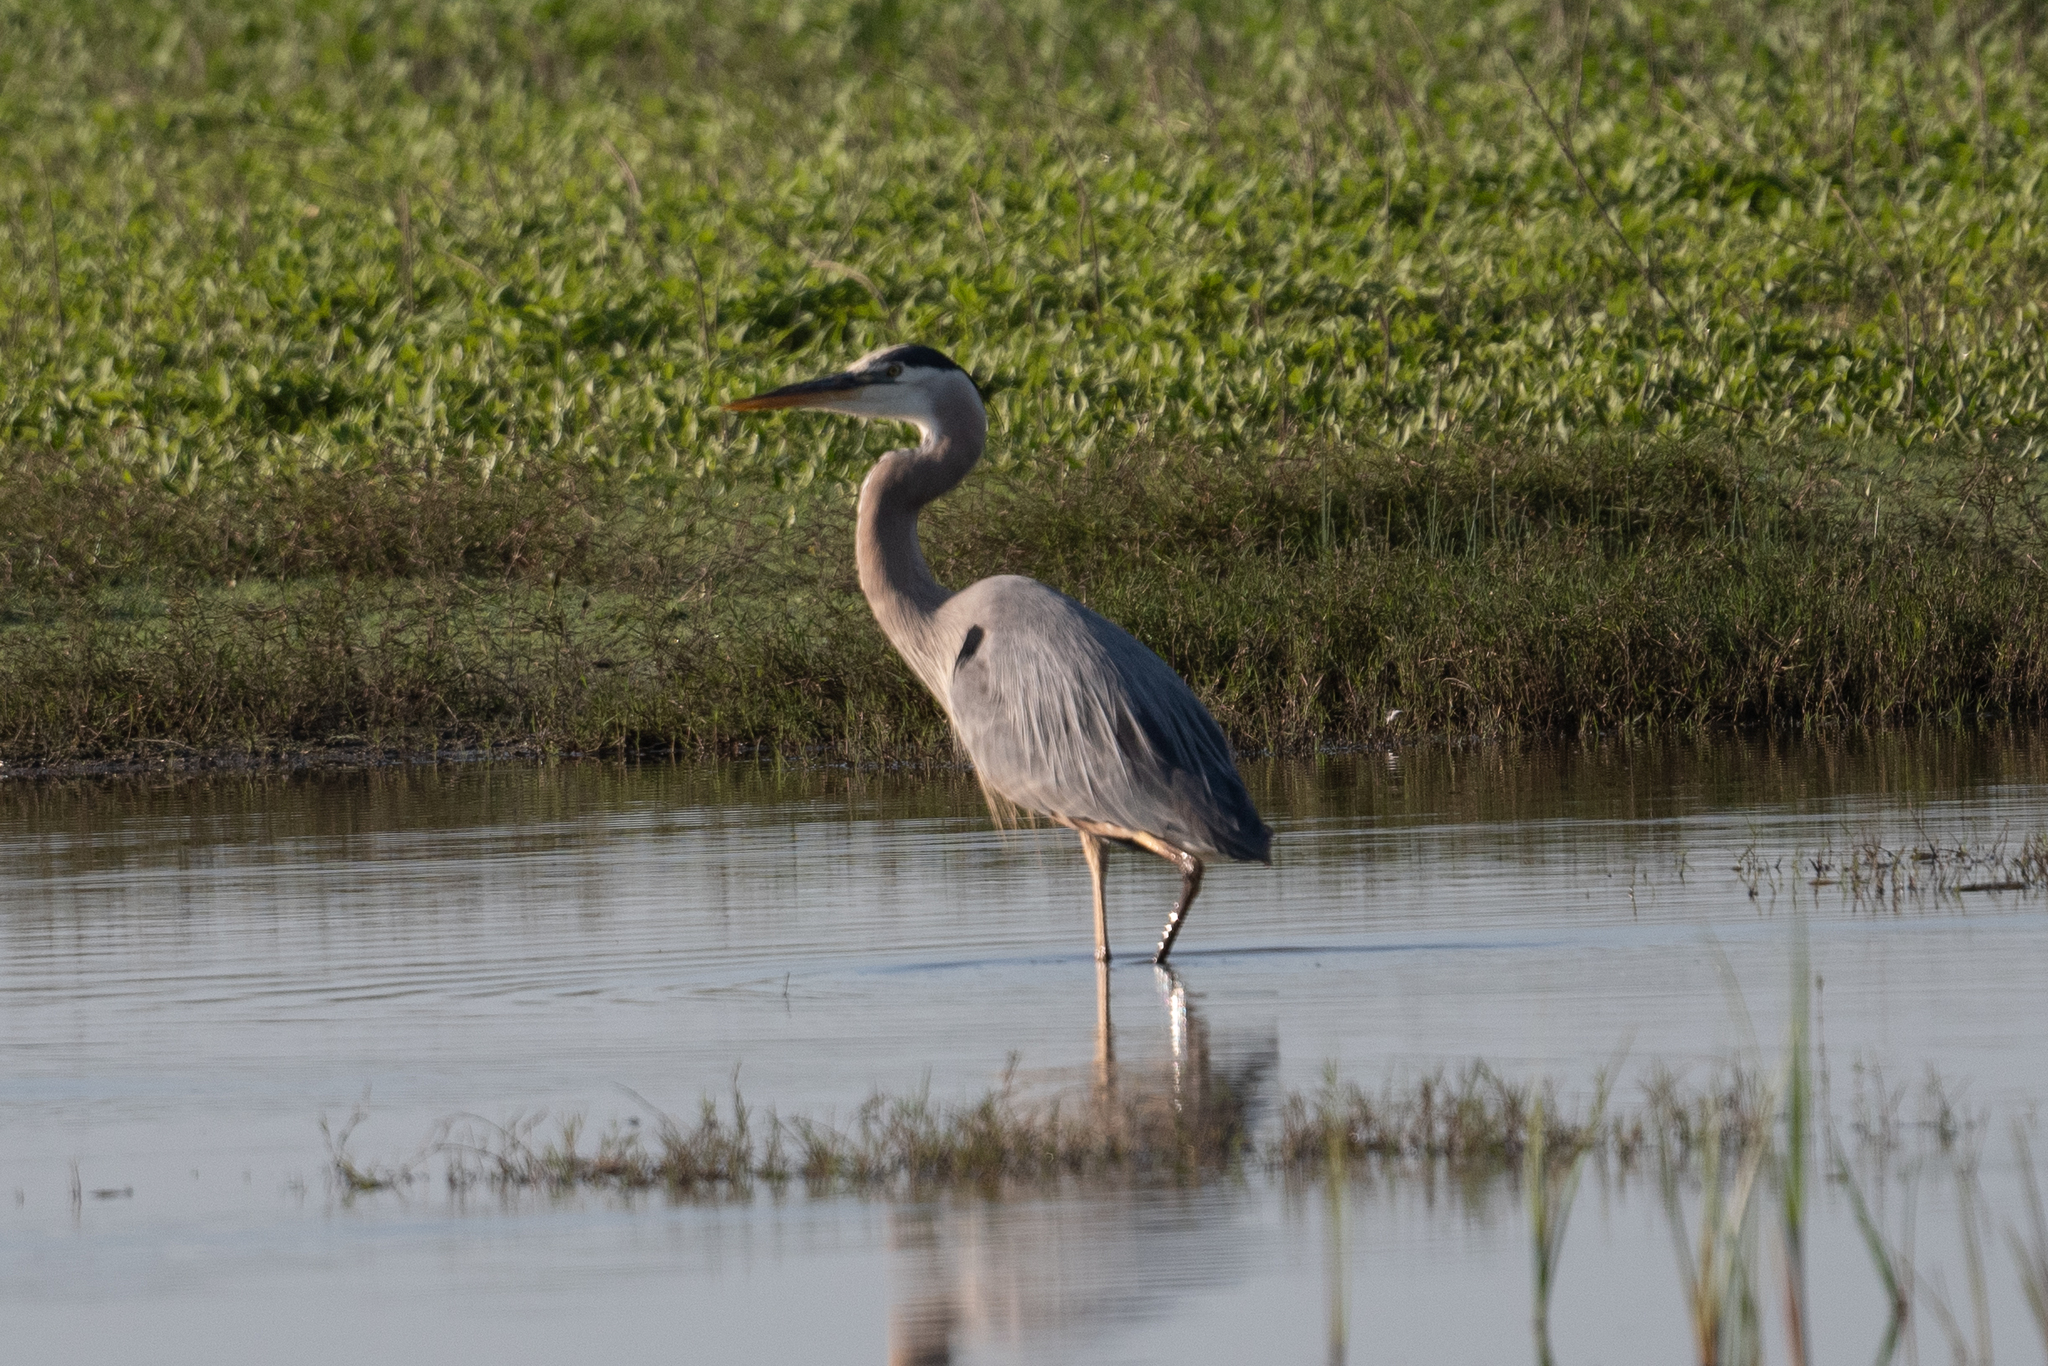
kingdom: Animalia
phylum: Chordata
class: Aves
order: Pelecaniformes
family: Ardeidae
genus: Ardea
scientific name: Ardea herodias
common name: Great blue heron
